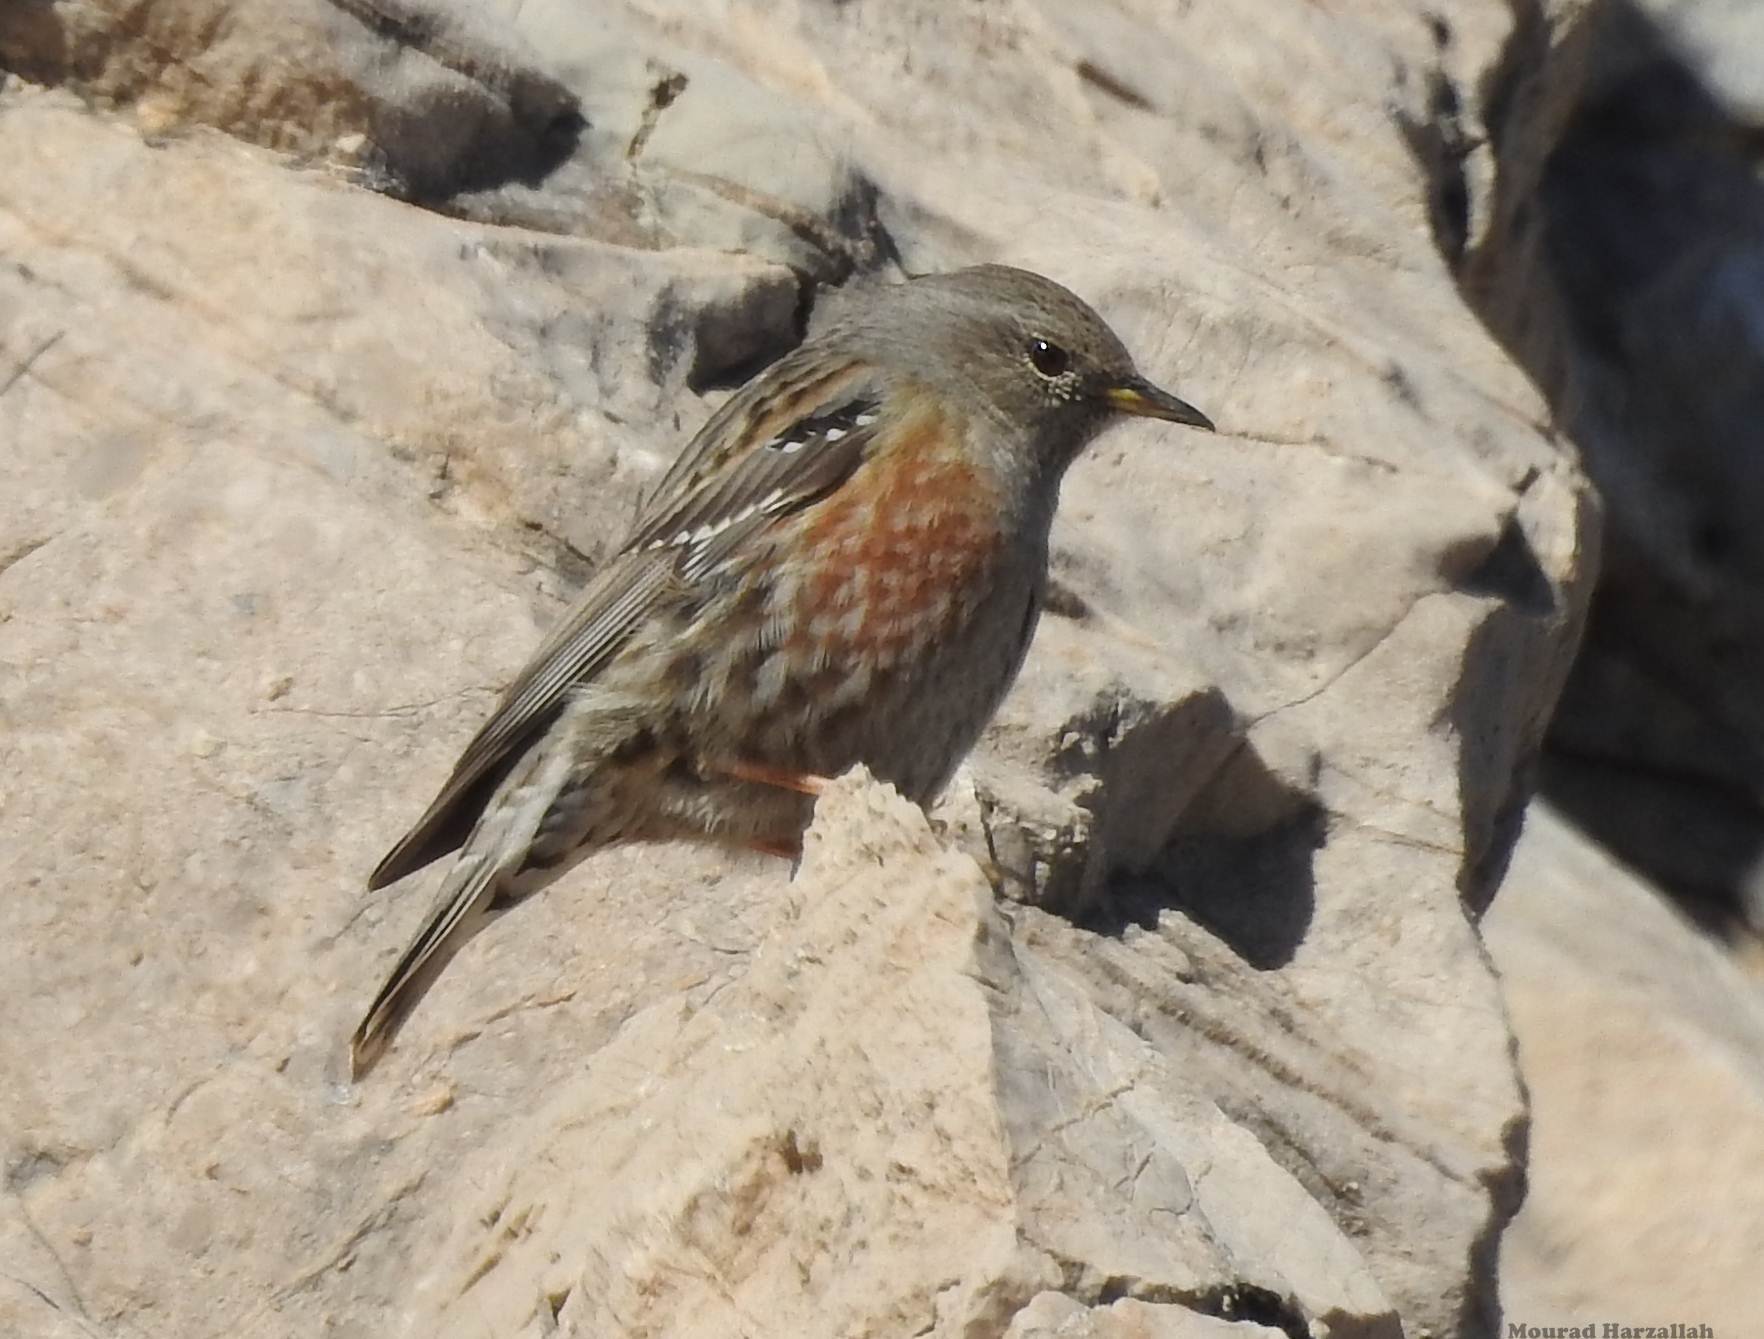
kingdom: Animalia
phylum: Chordata
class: Aves
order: Passeriformes
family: Prunellidae
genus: Prunella
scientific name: Prunella collaris
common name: Alpine accentor
